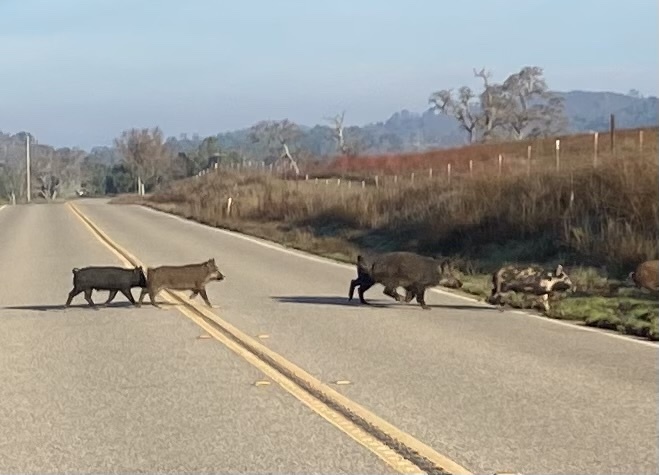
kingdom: Animalia
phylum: Chordata
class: Mammalia
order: Artiodactyla
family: Suidae
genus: Sus
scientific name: Sus scrofa
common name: Wild boar
